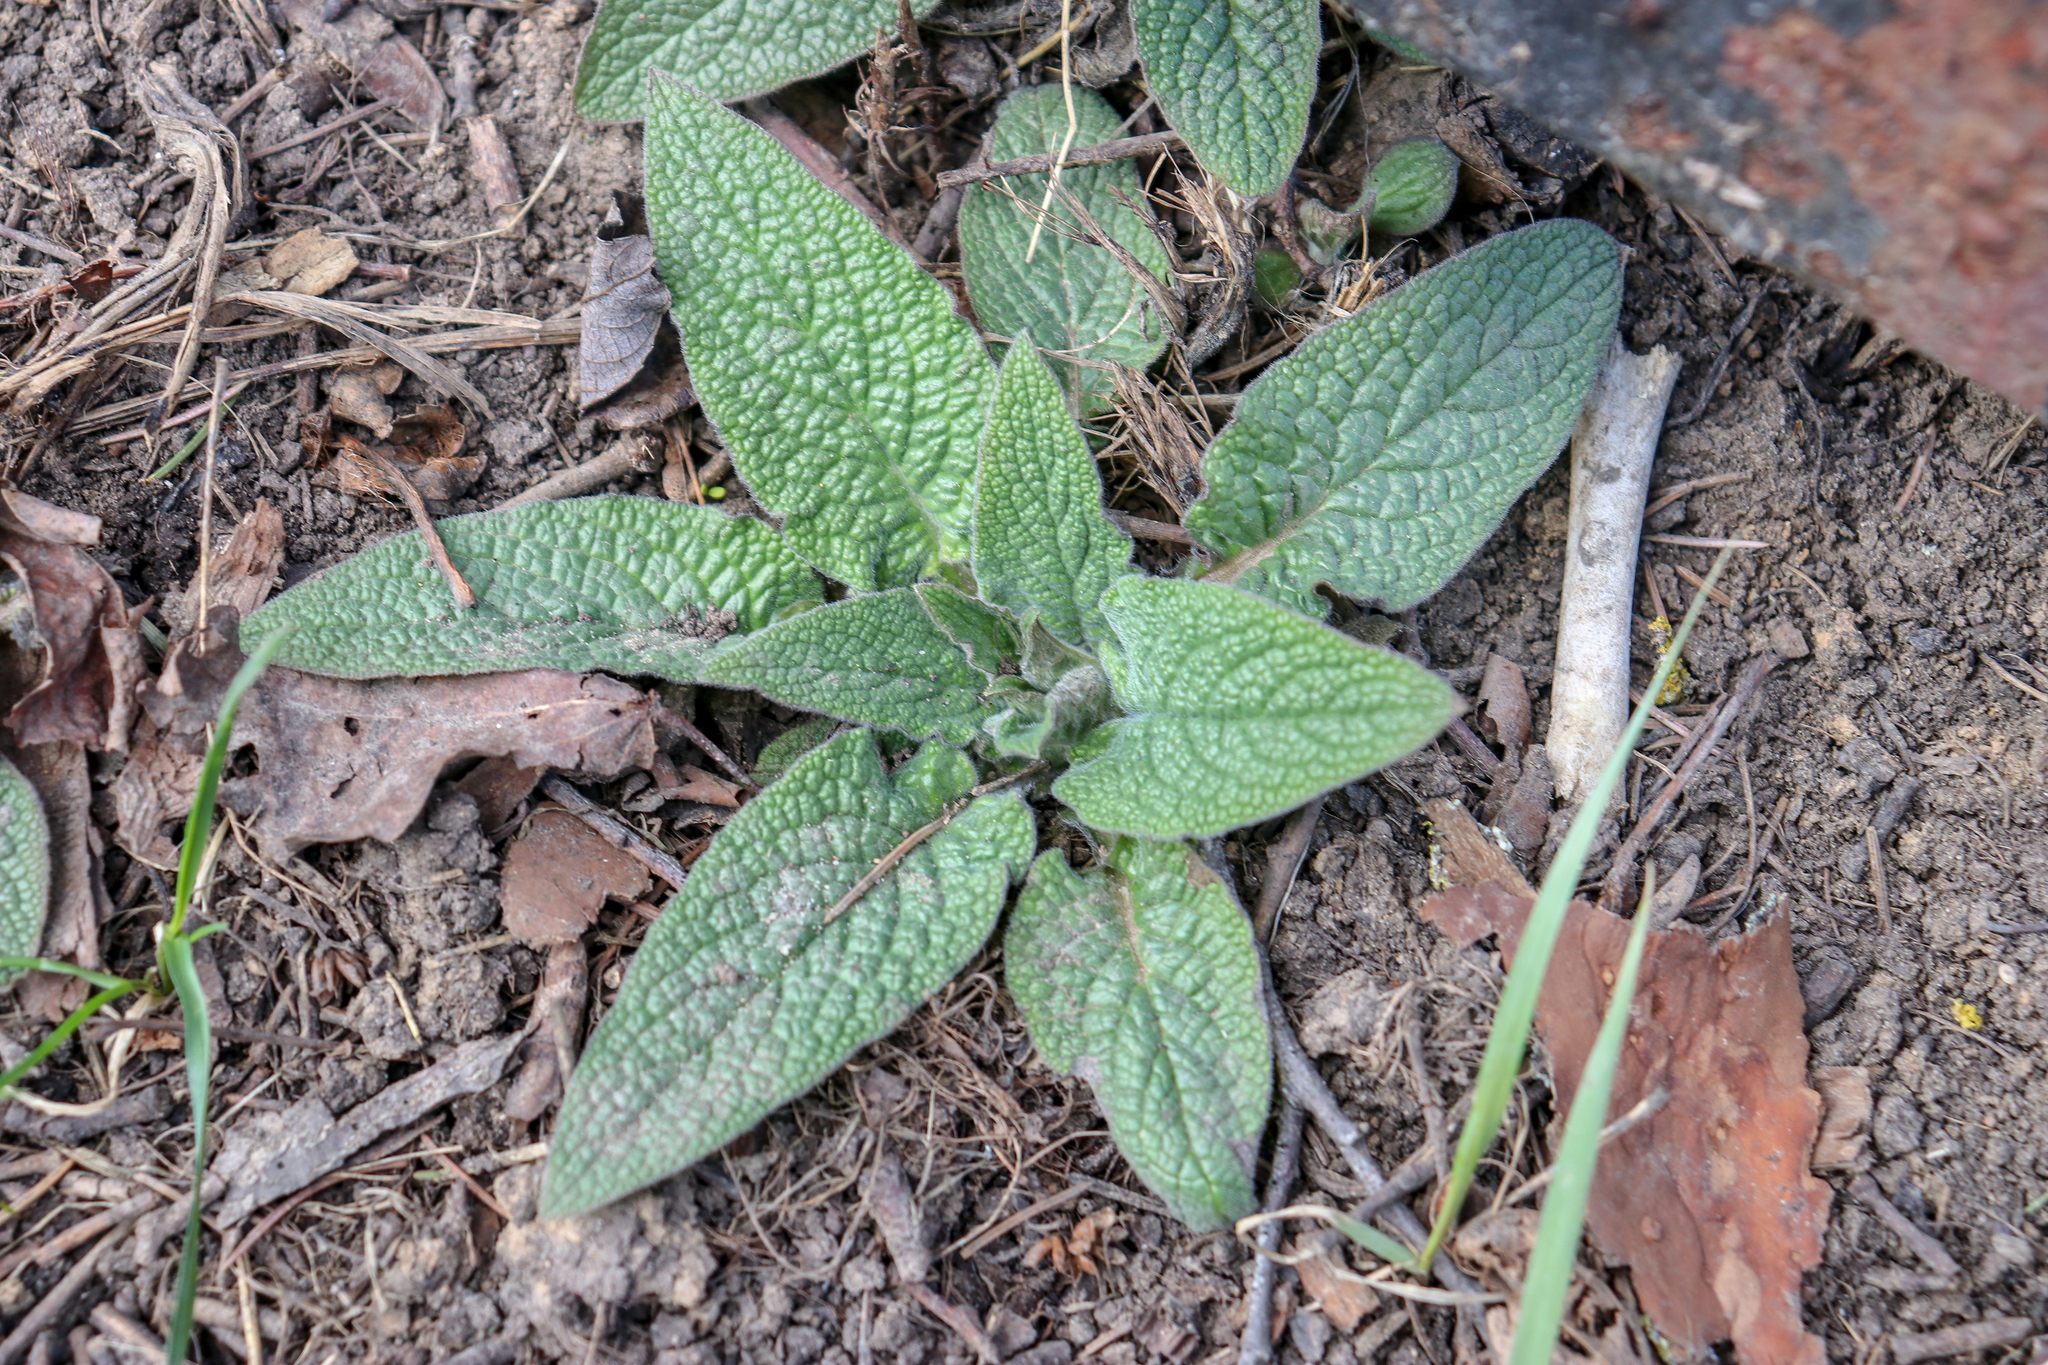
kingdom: Plantae
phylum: Tracheophyta
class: Magnoliopsida
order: Boraginales
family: Boraginaceae
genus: Symphytum
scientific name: Symphytum caucasicum
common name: Caucasian comfrey
